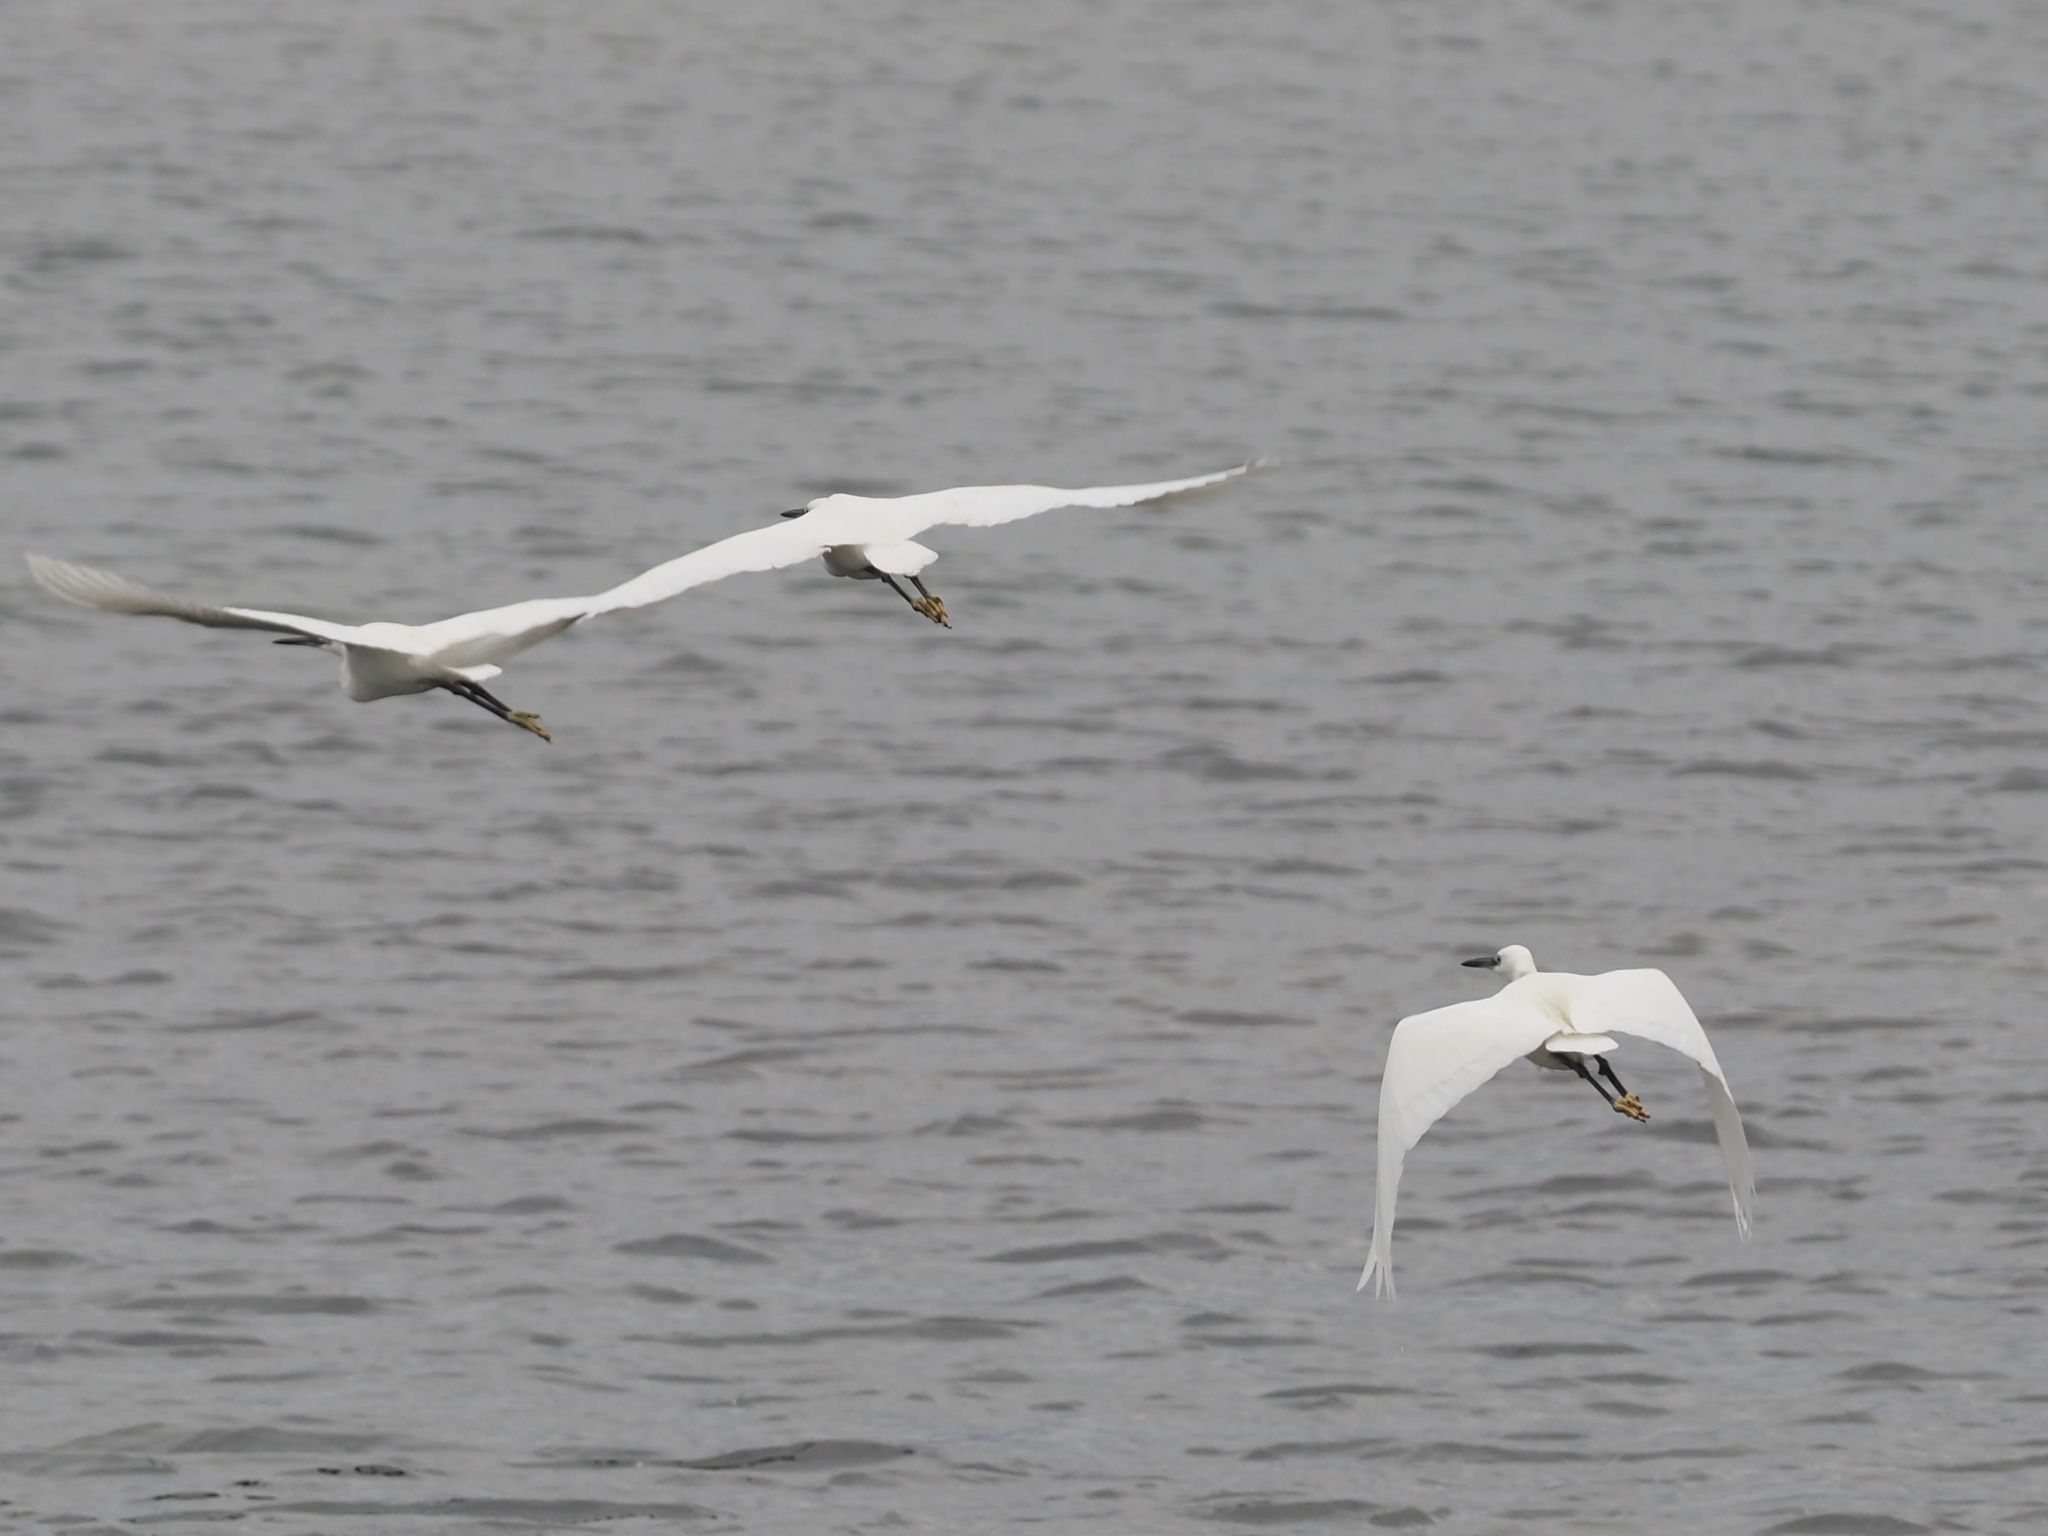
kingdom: Animalia
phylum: Chordata
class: Aves
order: Pelecaniformes
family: Ardeidae
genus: Egretta
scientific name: Egretta garzetta
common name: Little egret
